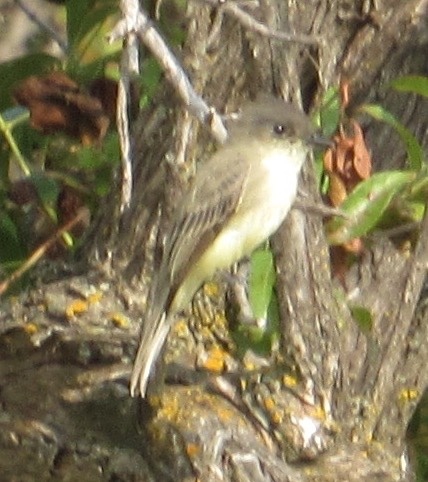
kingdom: Animalia
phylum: Chordata
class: Aves
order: Passeriformes
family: Tyrannidae
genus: Sayornis
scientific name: Sayornis phoebe
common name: Eastern phoebe
